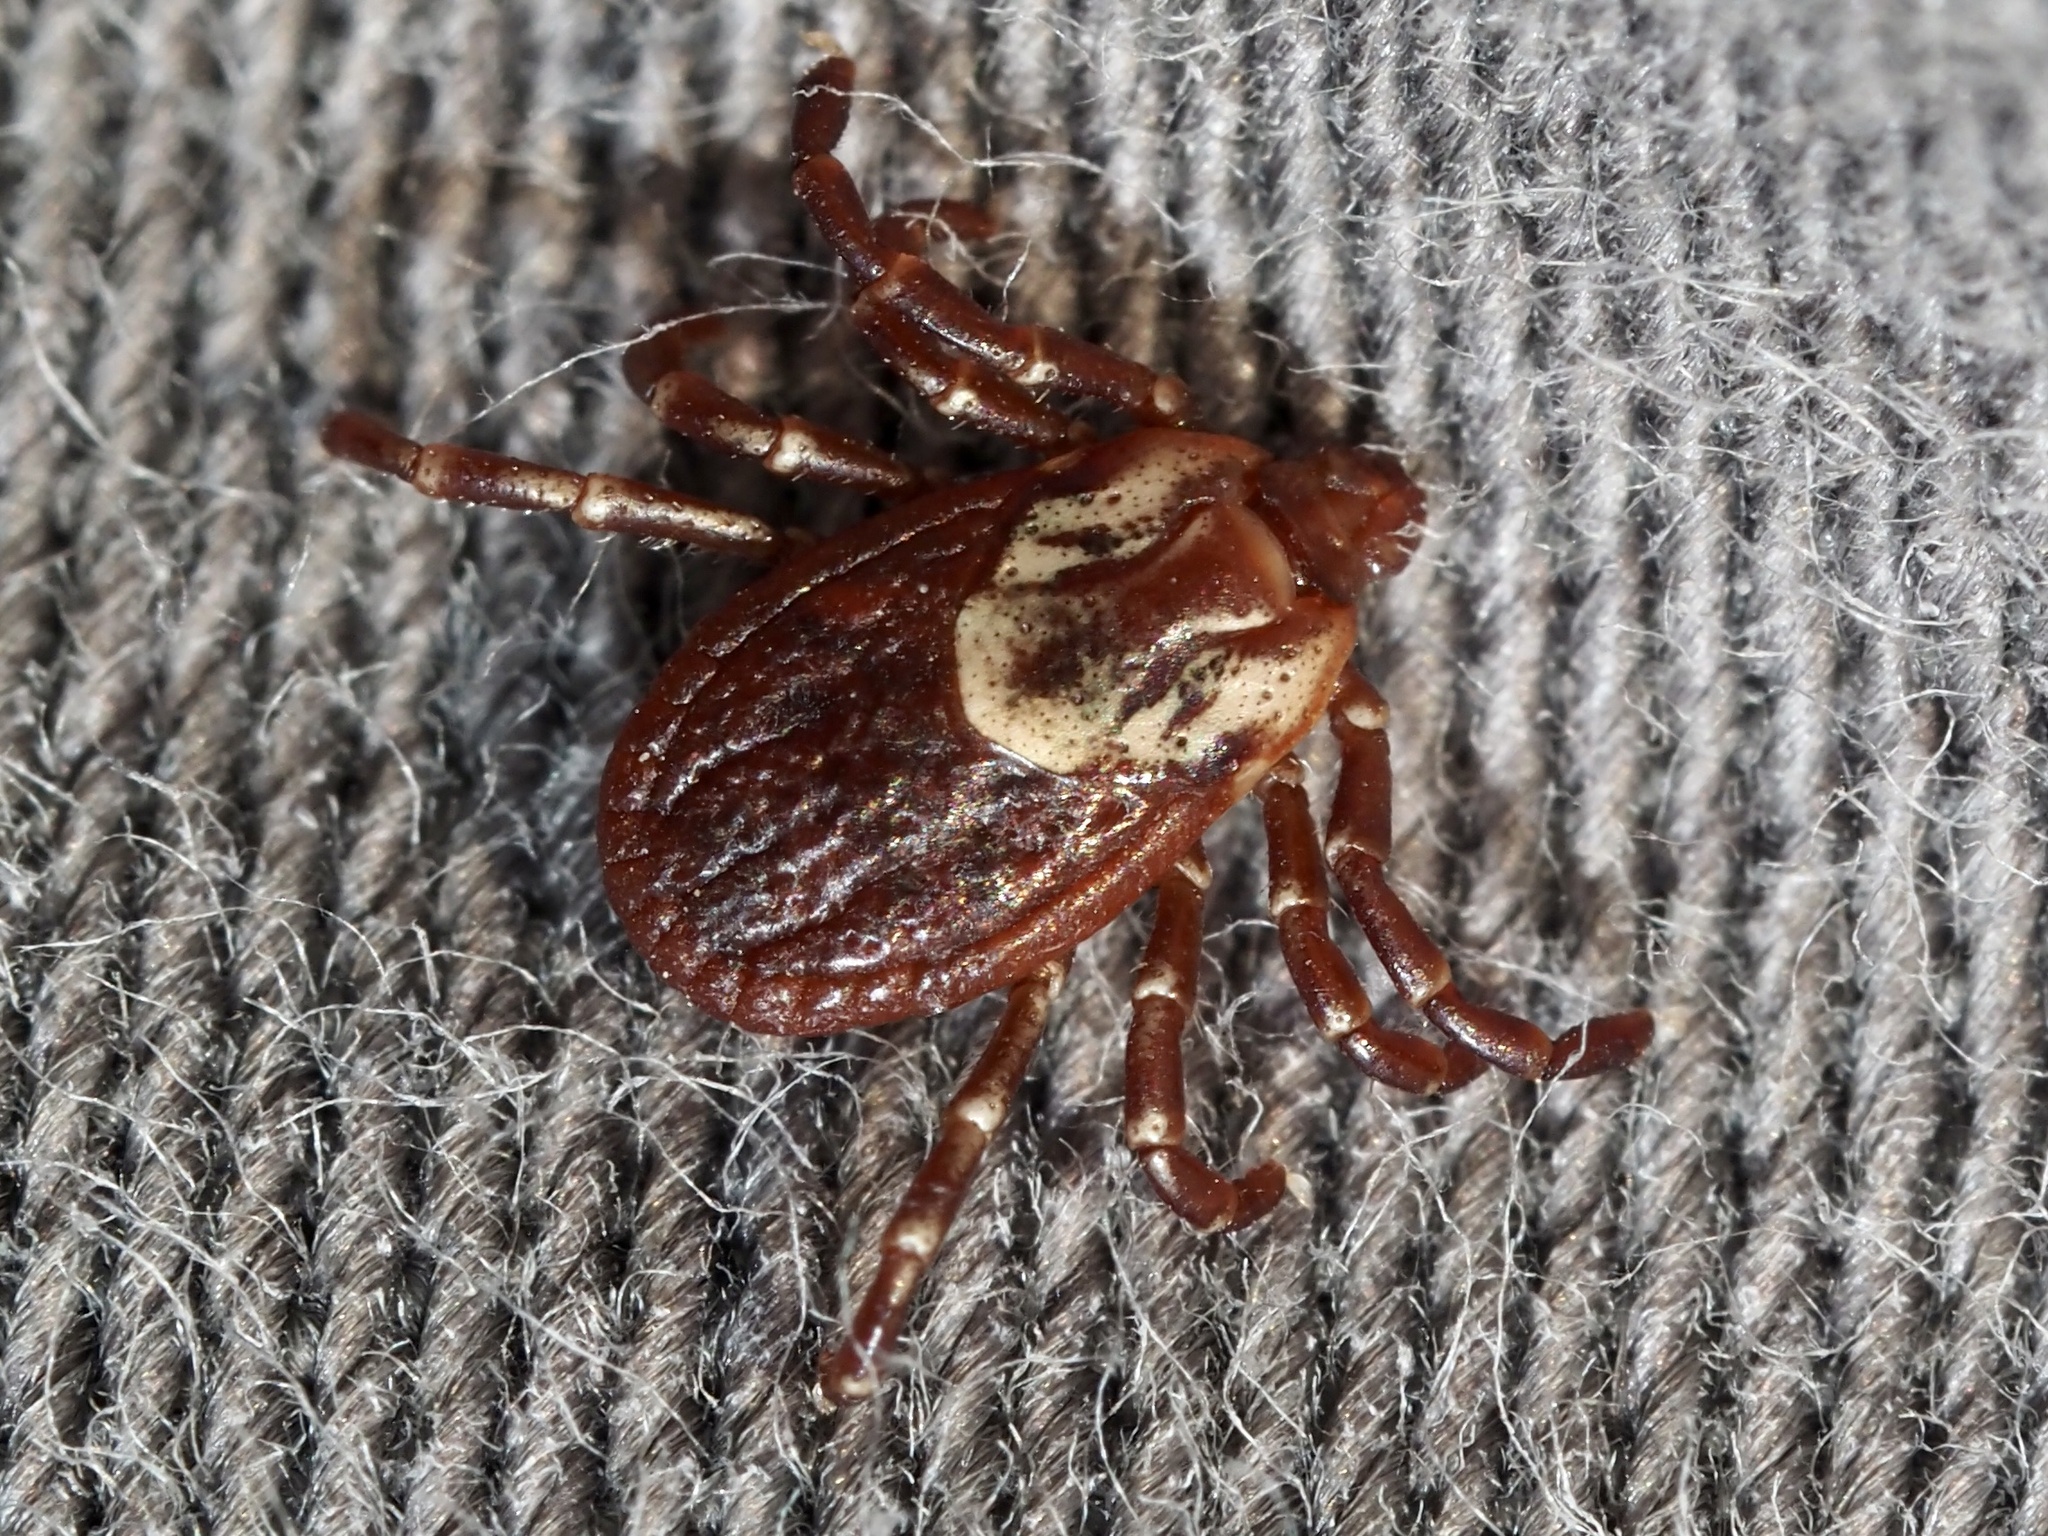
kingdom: Animalia
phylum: Arthropoda
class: Arachnida
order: Ixodida
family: Ixodidae
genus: Dermacentor
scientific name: Dermacentor variabilis
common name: American dog tick
